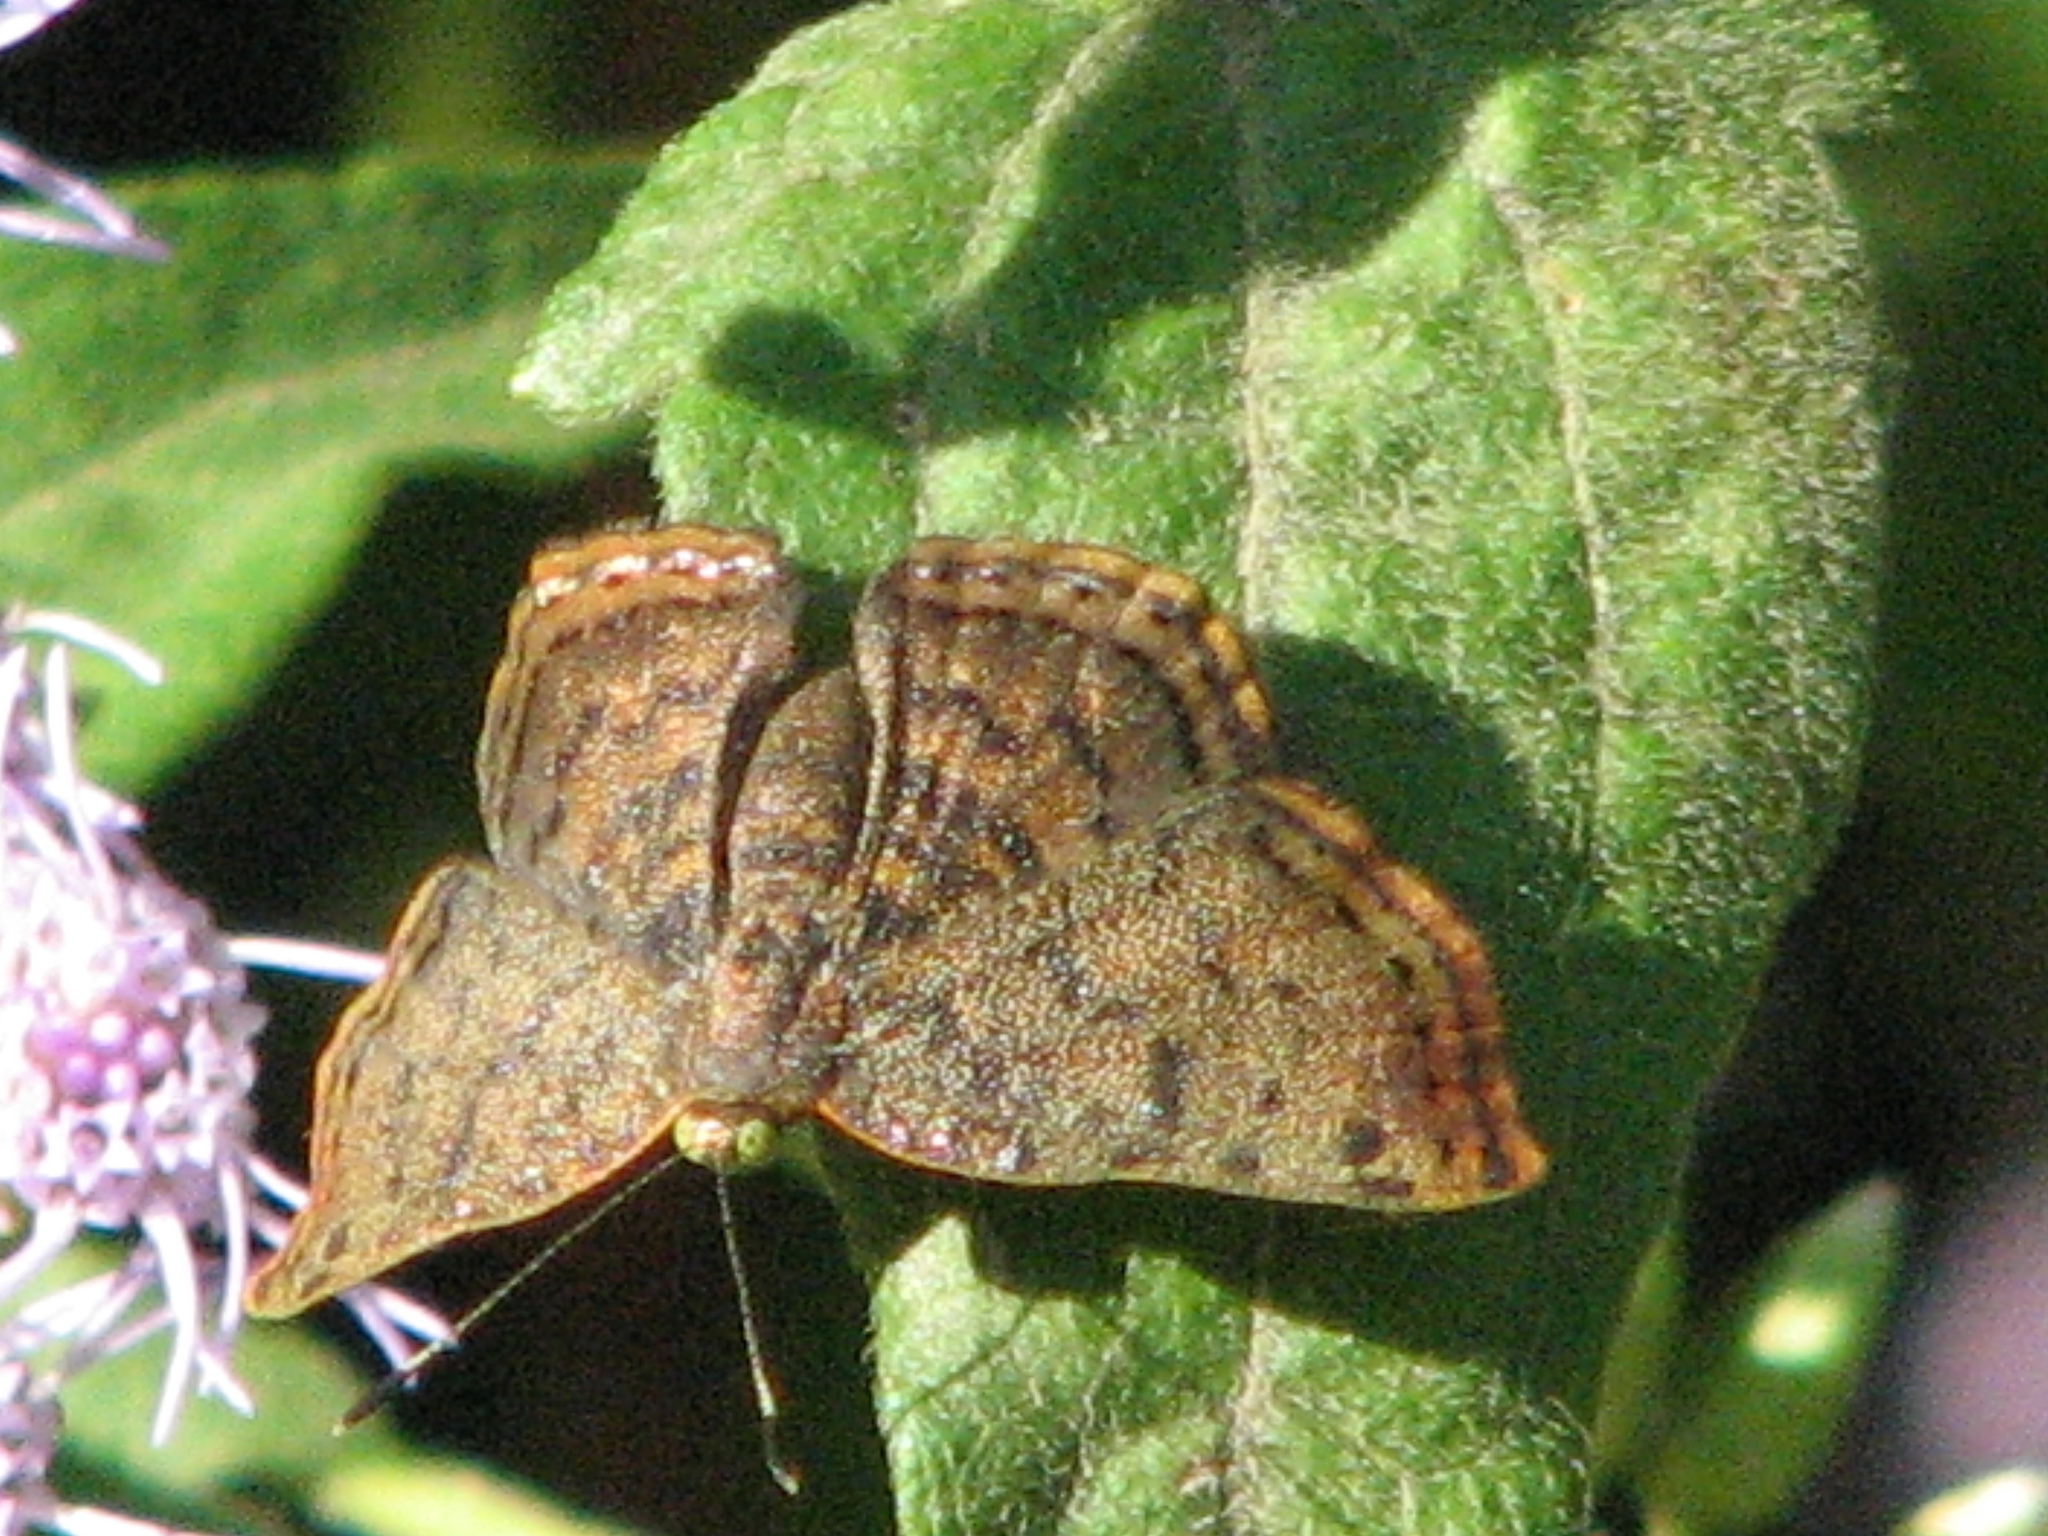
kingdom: Animalia
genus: Caria
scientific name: Caria ino
